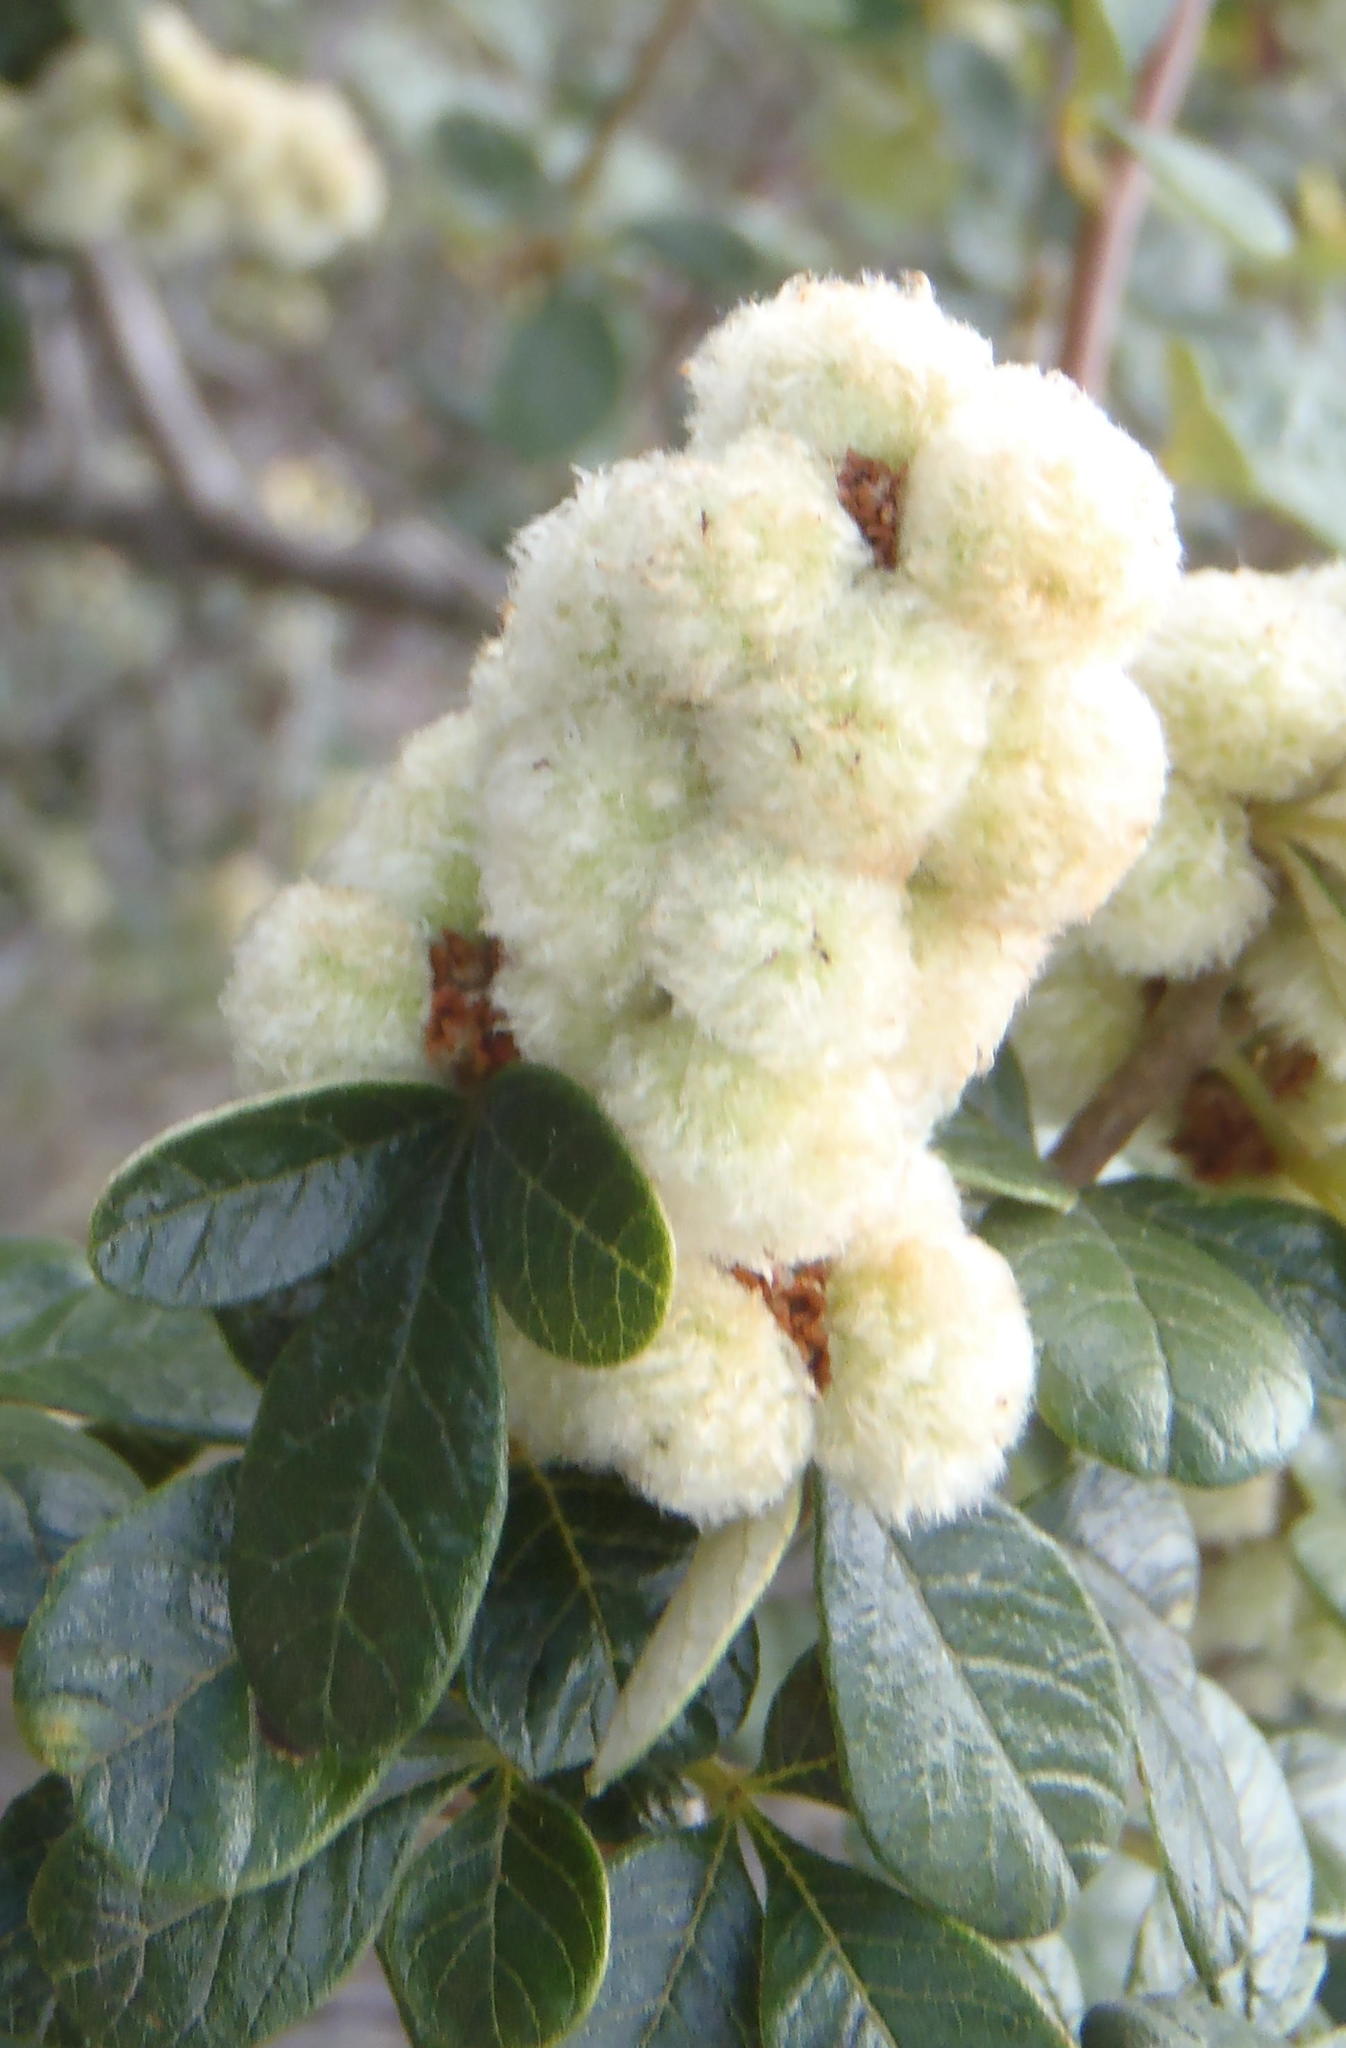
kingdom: Plantae
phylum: Tracheophyta
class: Magnoliopsida
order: Sapindales
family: Anacardiaceae
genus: Searsia
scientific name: Searsia incisa
